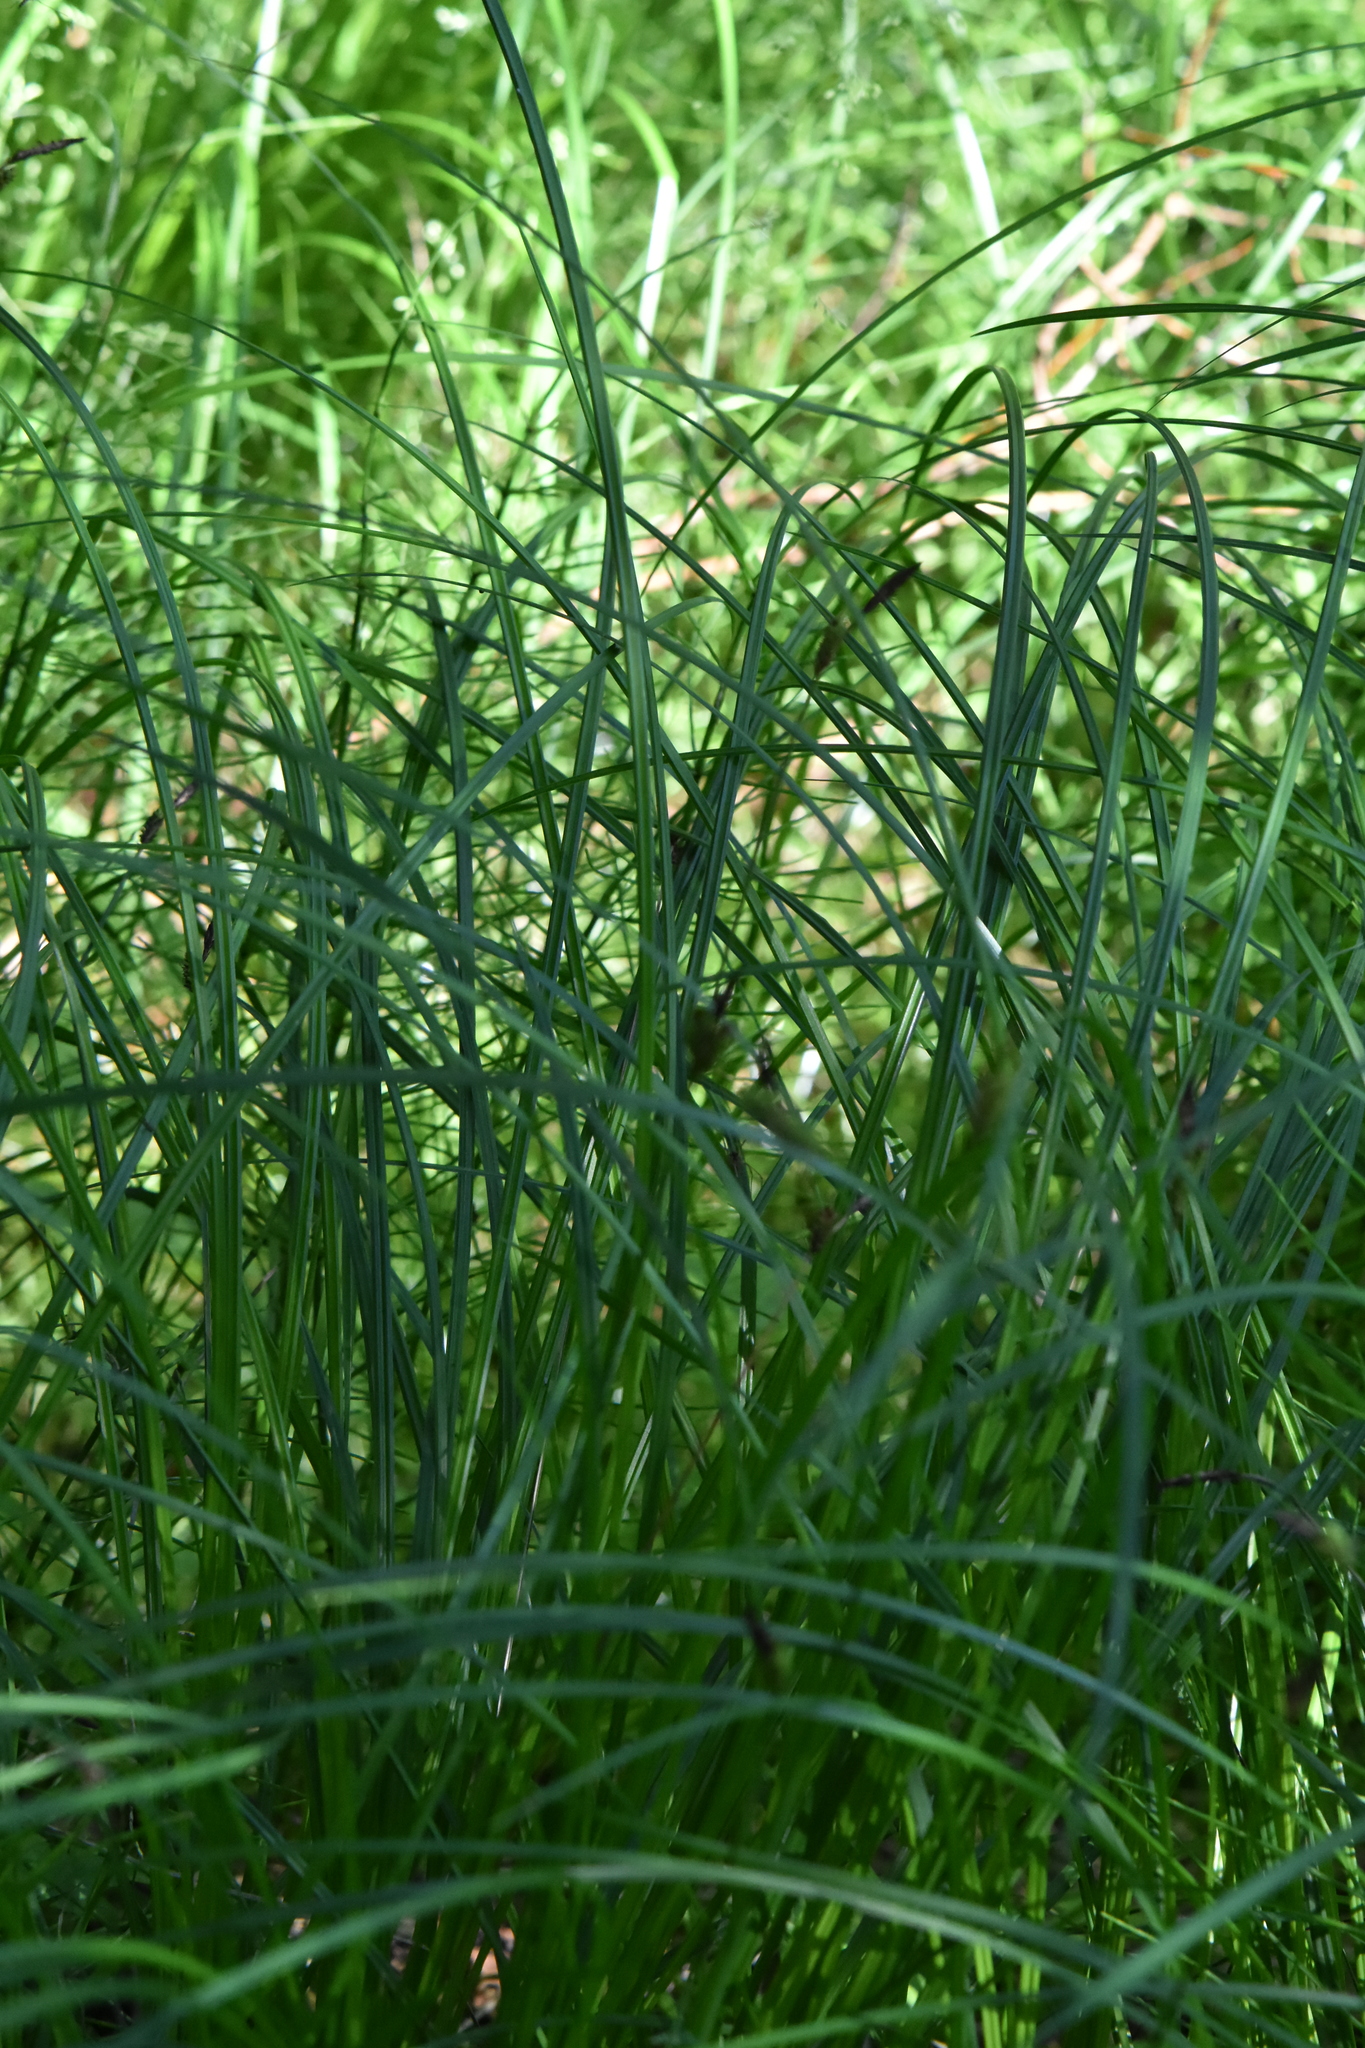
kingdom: Plantae
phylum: Tracheophyta
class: Liliopsida
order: Poales
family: Cyperaceae
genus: Carex
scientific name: Carex nigra
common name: Common sedge
